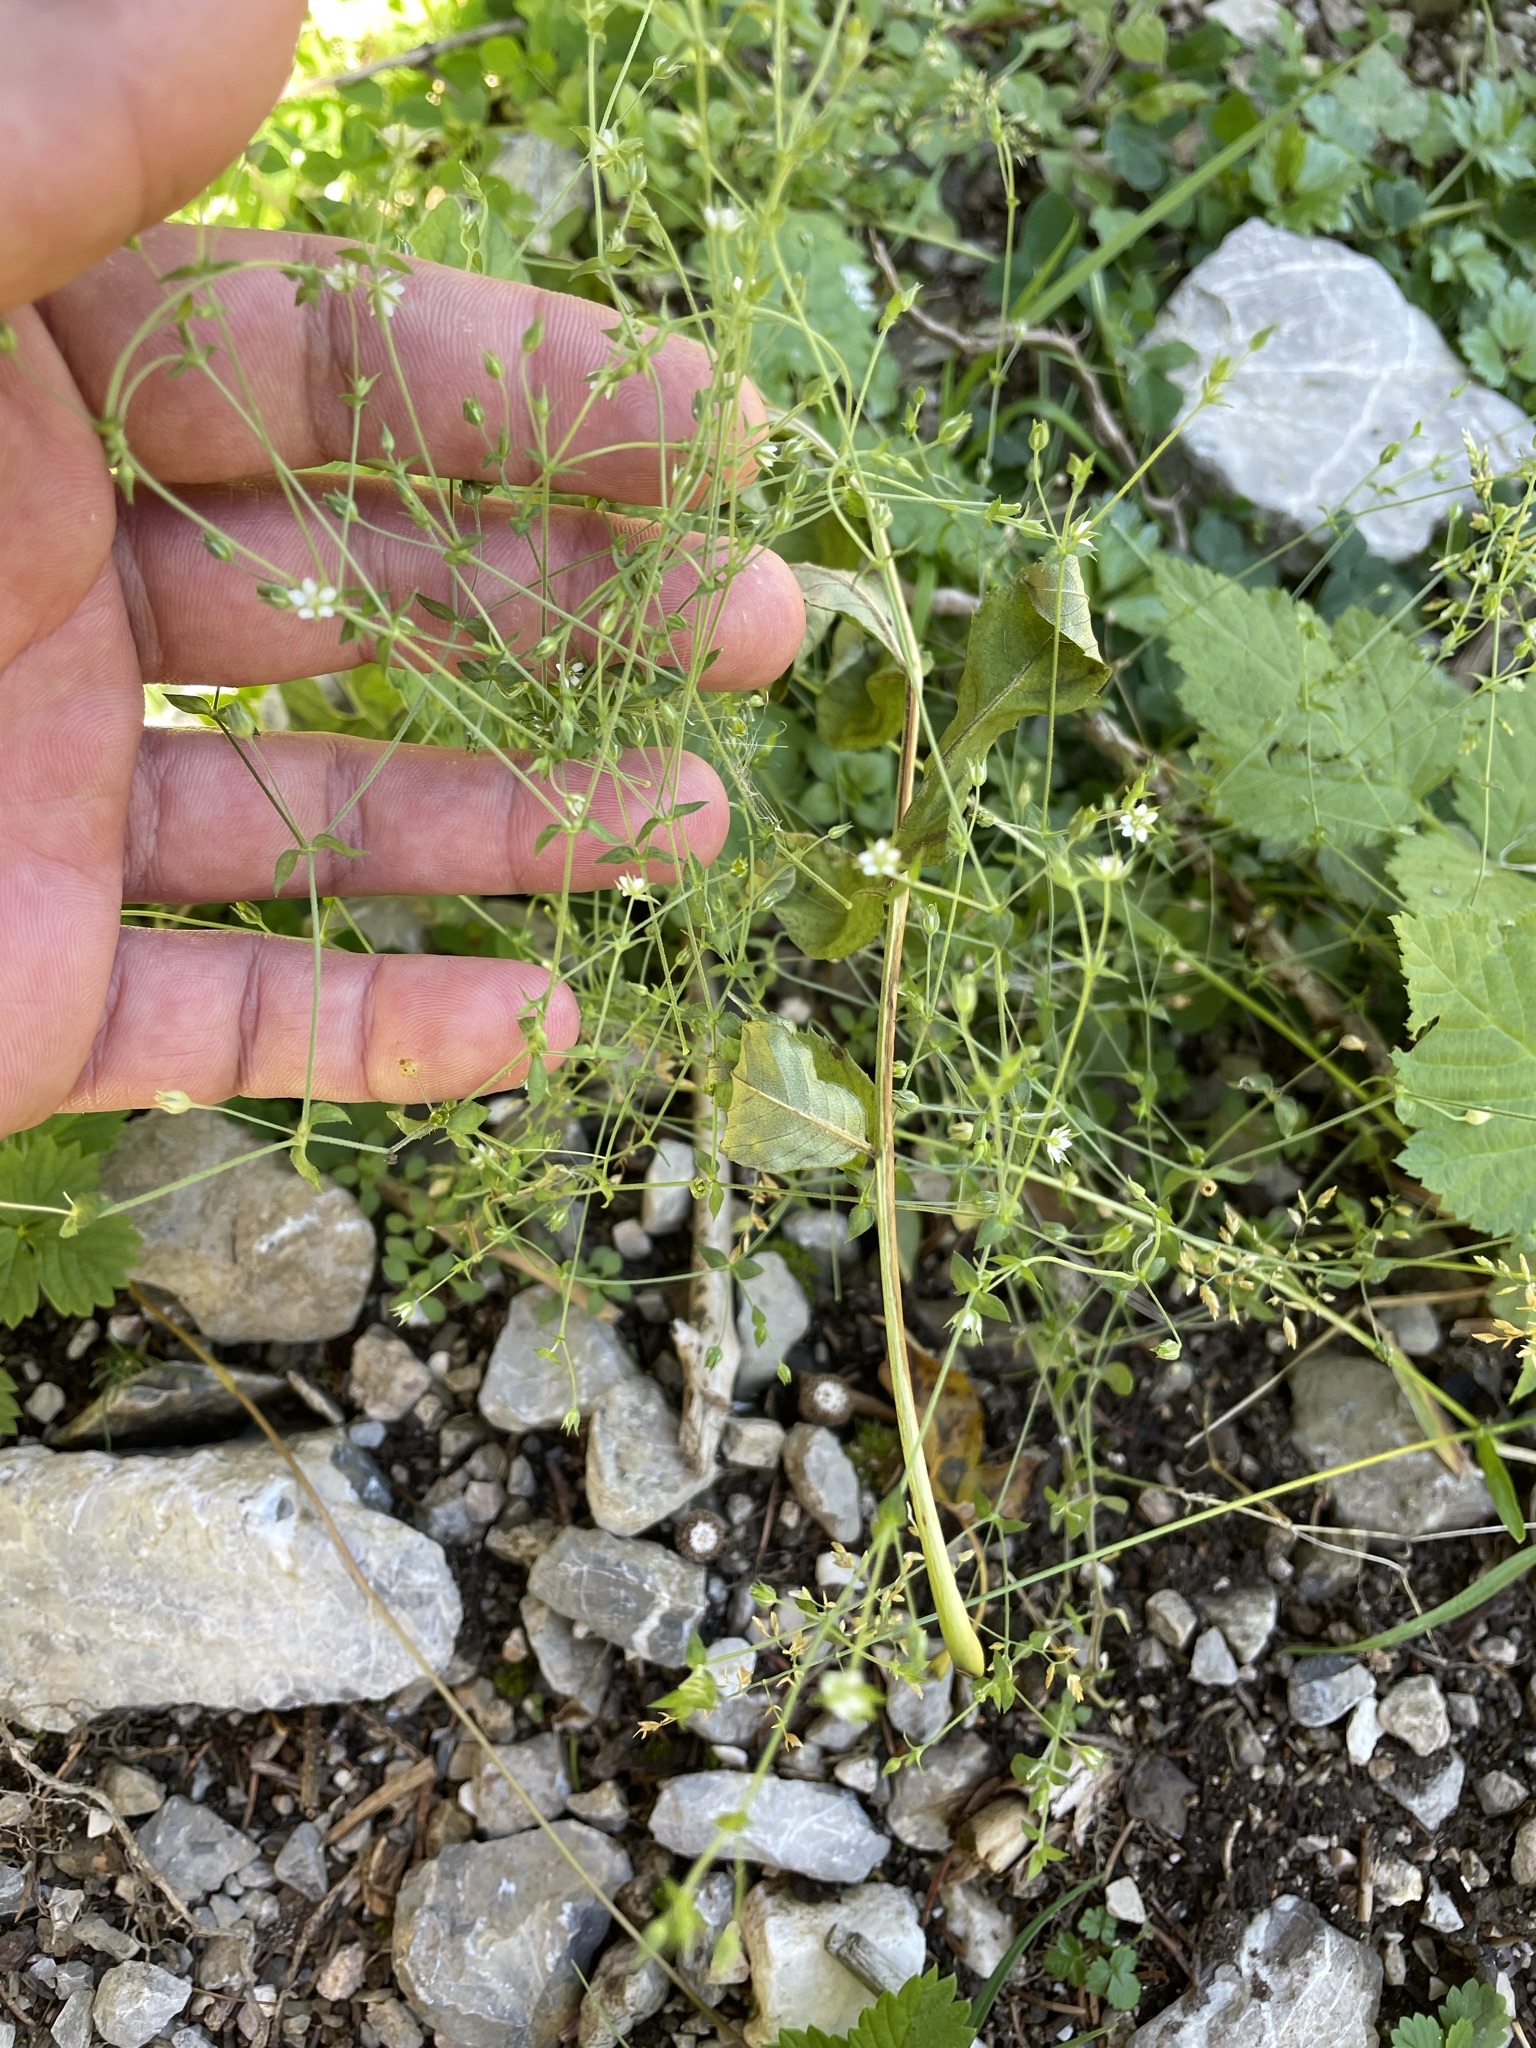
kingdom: Plantae
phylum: Tracheophyta
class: Magnoliopsida
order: Caryophyllales
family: Caryophyllaceae
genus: Arenaria
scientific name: Arenaria serpyllifolia
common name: Thyme-leaved sandwort
